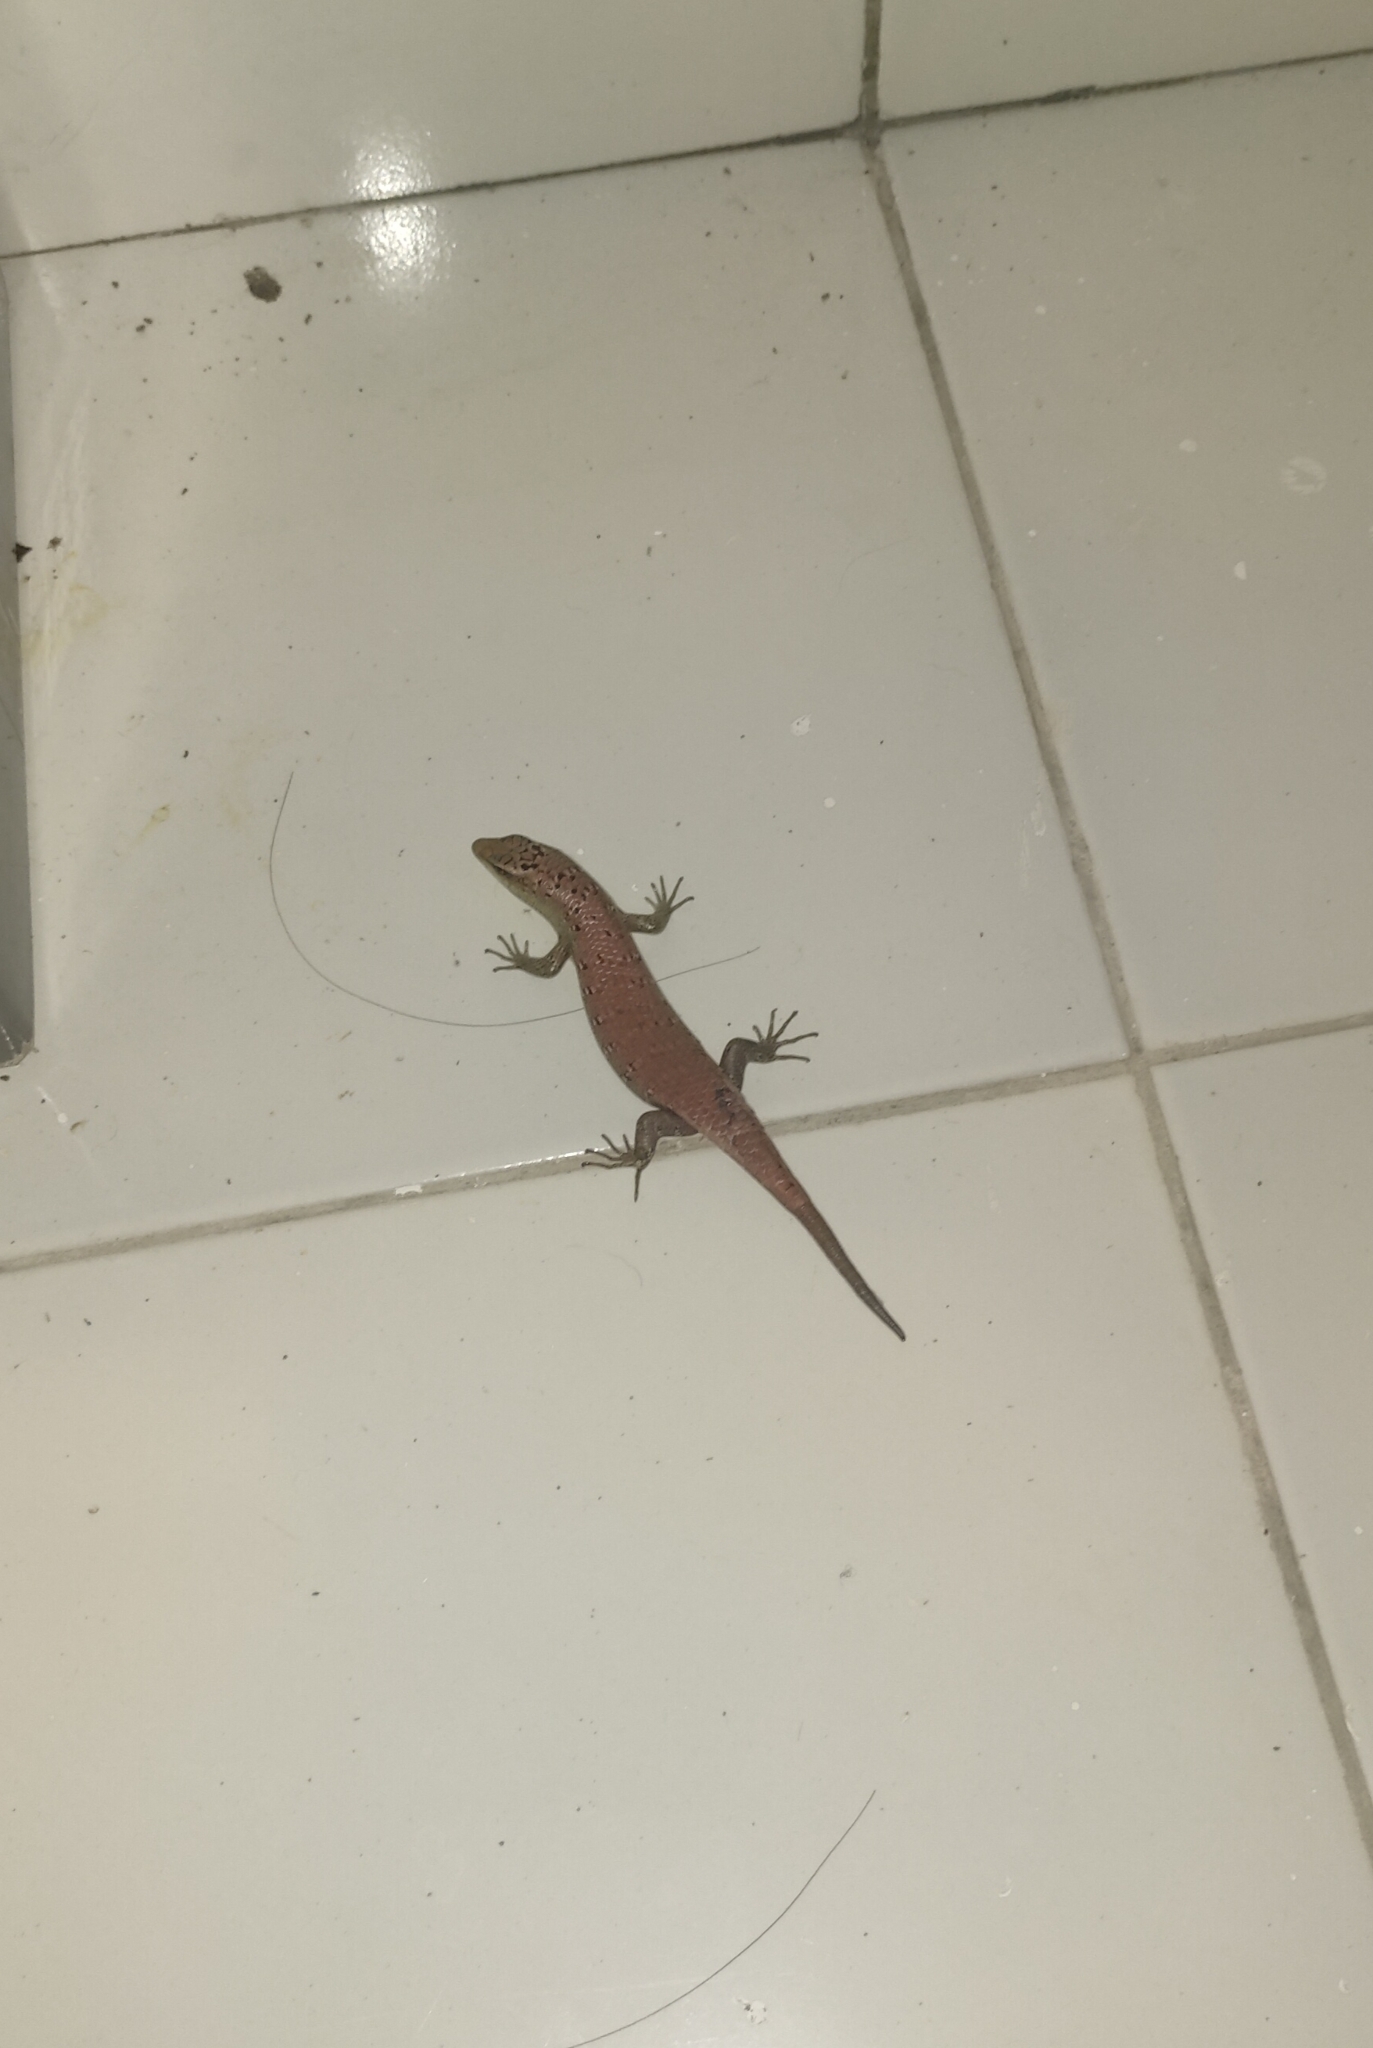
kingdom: Animalia
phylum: Chordata
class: Squamata
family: Scincidae
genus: Dasia
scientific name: Dasia olivacea
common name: Olive dasia
